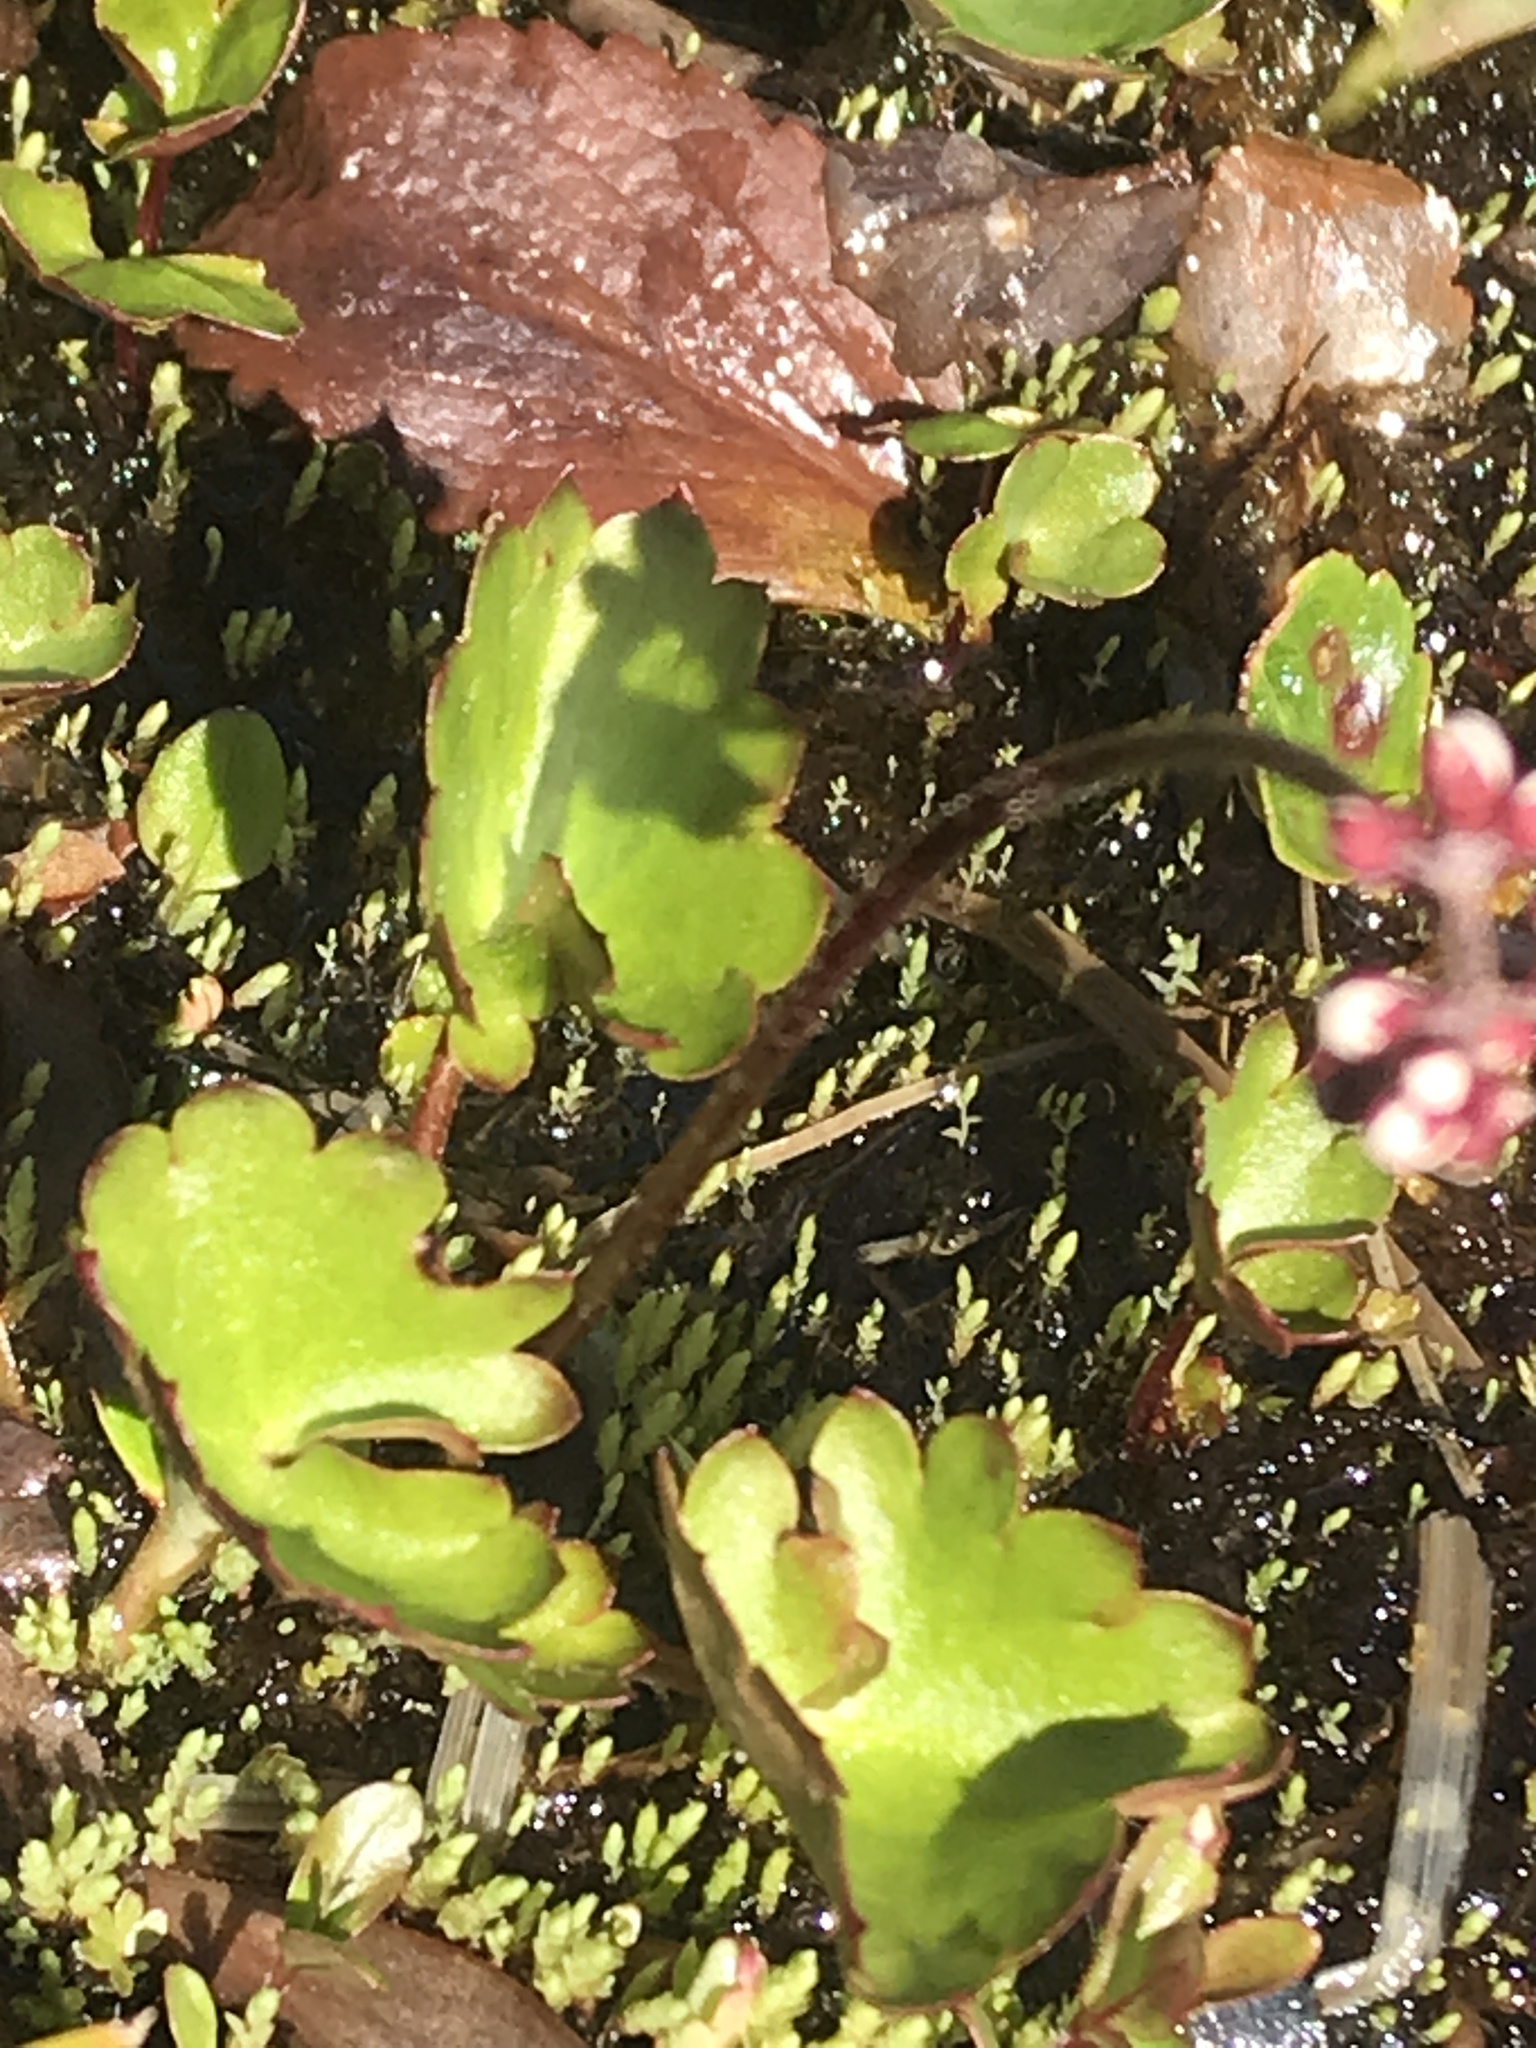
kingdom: Plantae
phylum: Tracheophyta
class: Magnoliopsida
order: Saxifragales
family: Saxifragaceae
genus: Micranthes
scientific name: Micranthes nelsoniana
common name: Nelson's saxifrage
